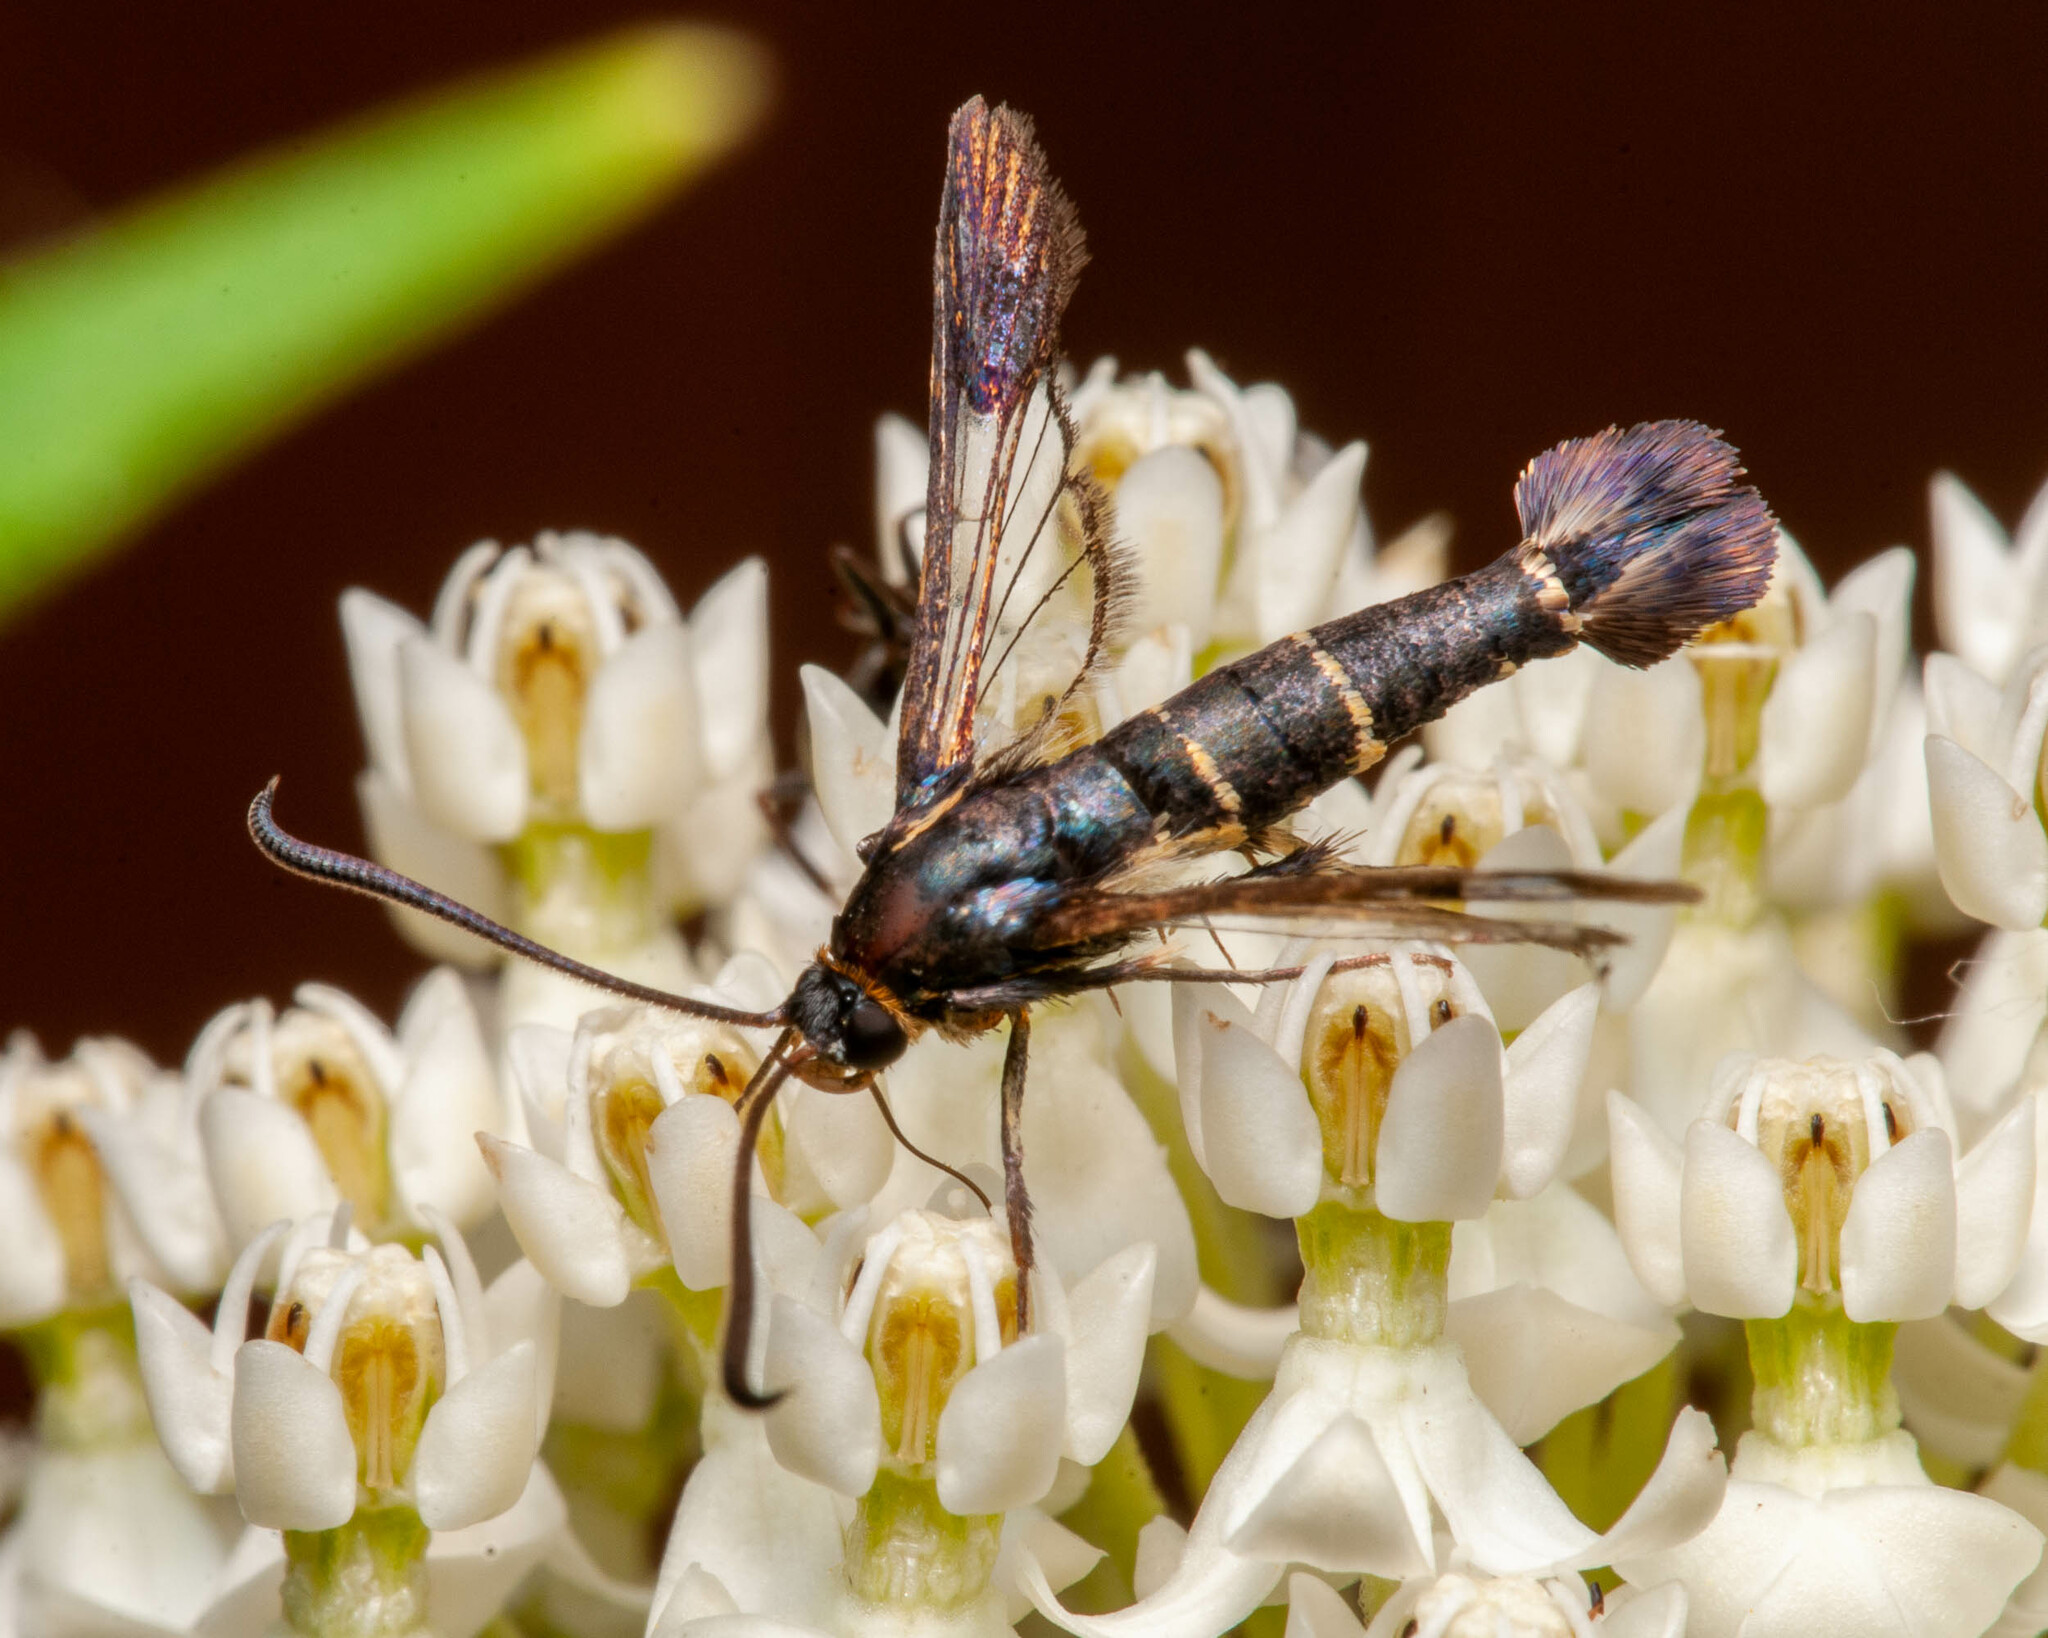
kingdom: Animalia
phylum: Arthropoda
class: Insecta
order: Lepidoptera
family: Sesiidae
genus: Synanthedon
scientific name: Synanthedon tipuliformis
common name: Currant clearwing
